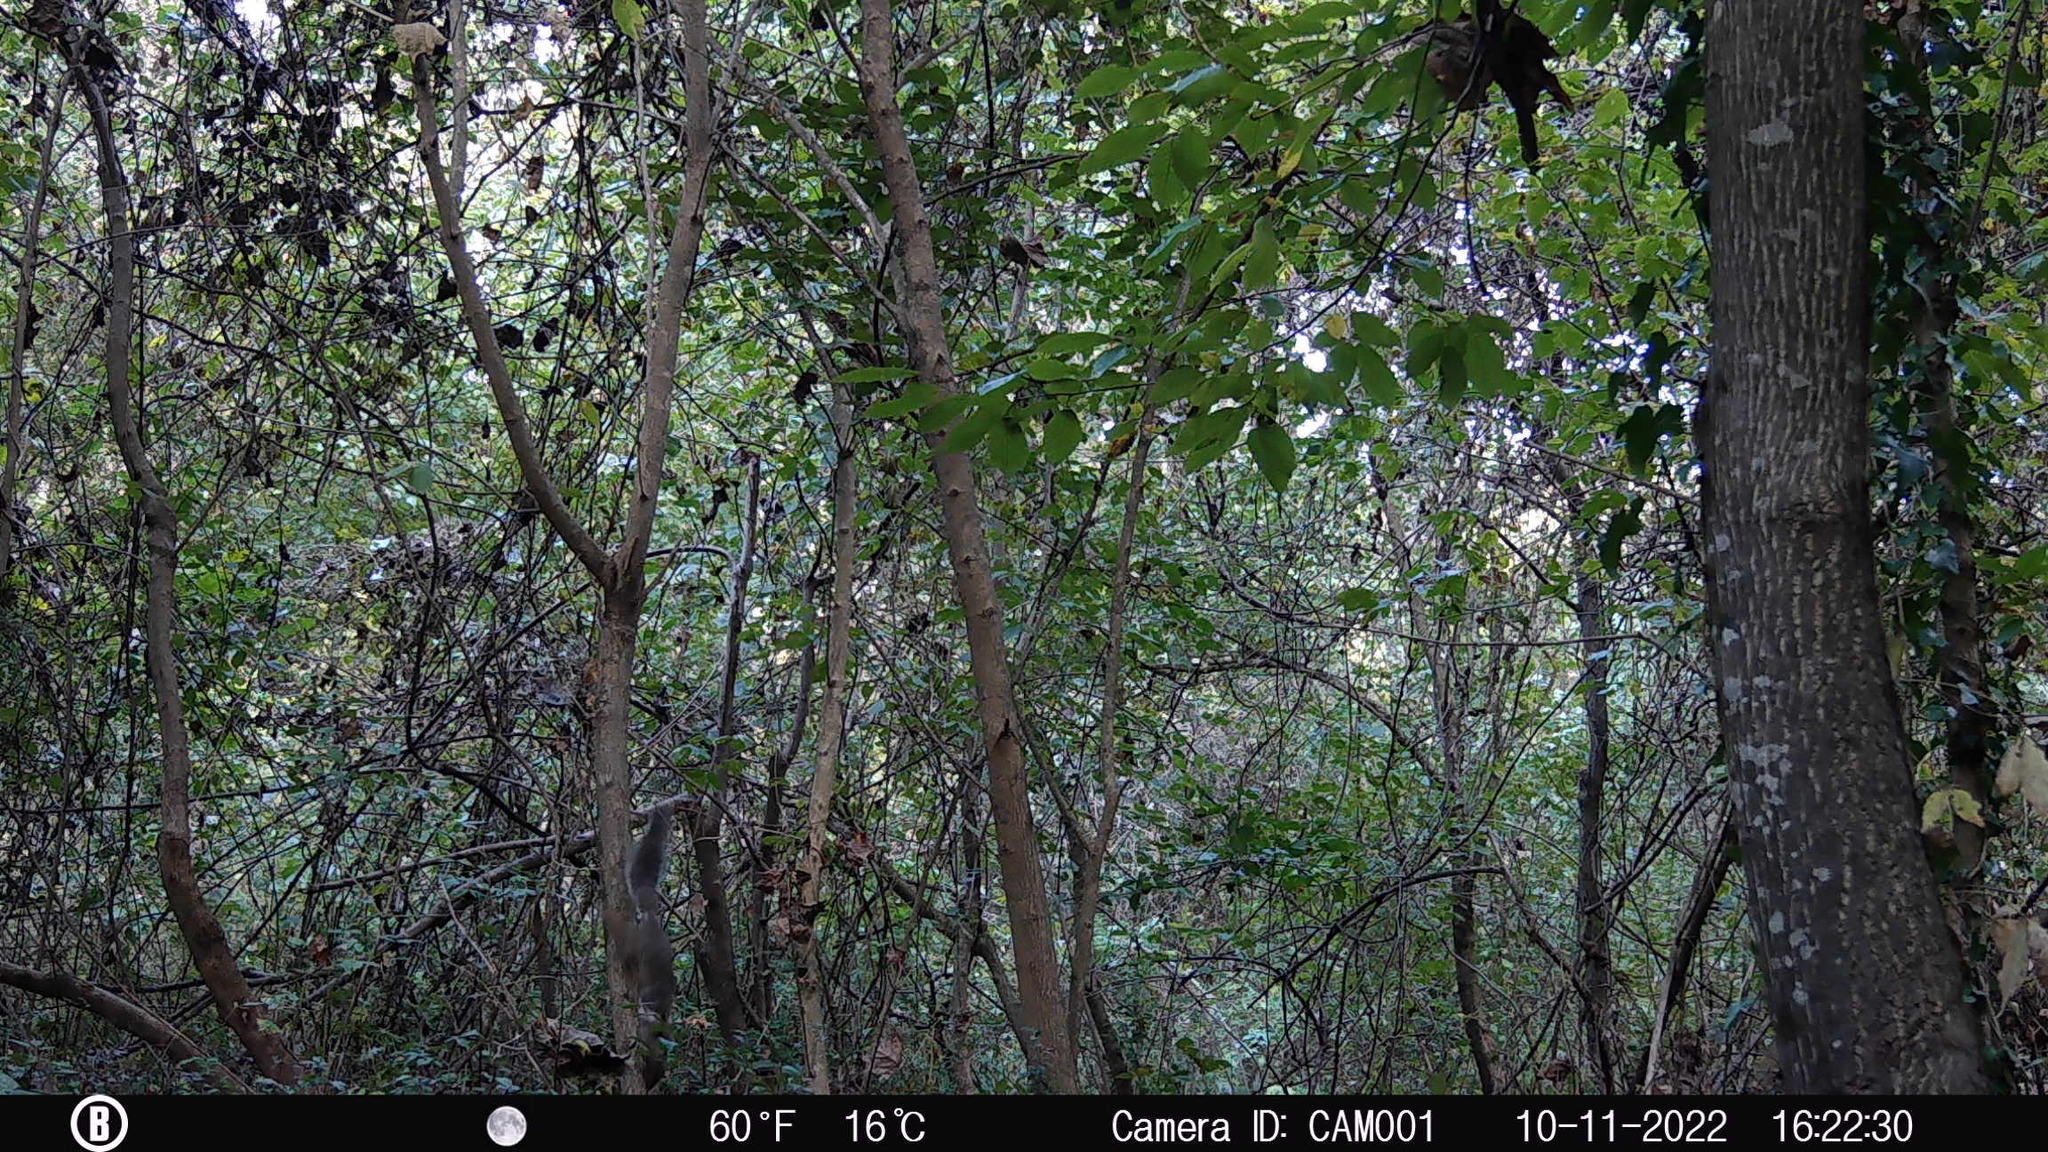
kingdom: Animalia
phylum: Chordata
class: Mammalia
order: Rodentia
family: Sciuridae
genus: Sciurus
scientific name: Sciurus carolinensis
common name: Eastern gray squirrel
